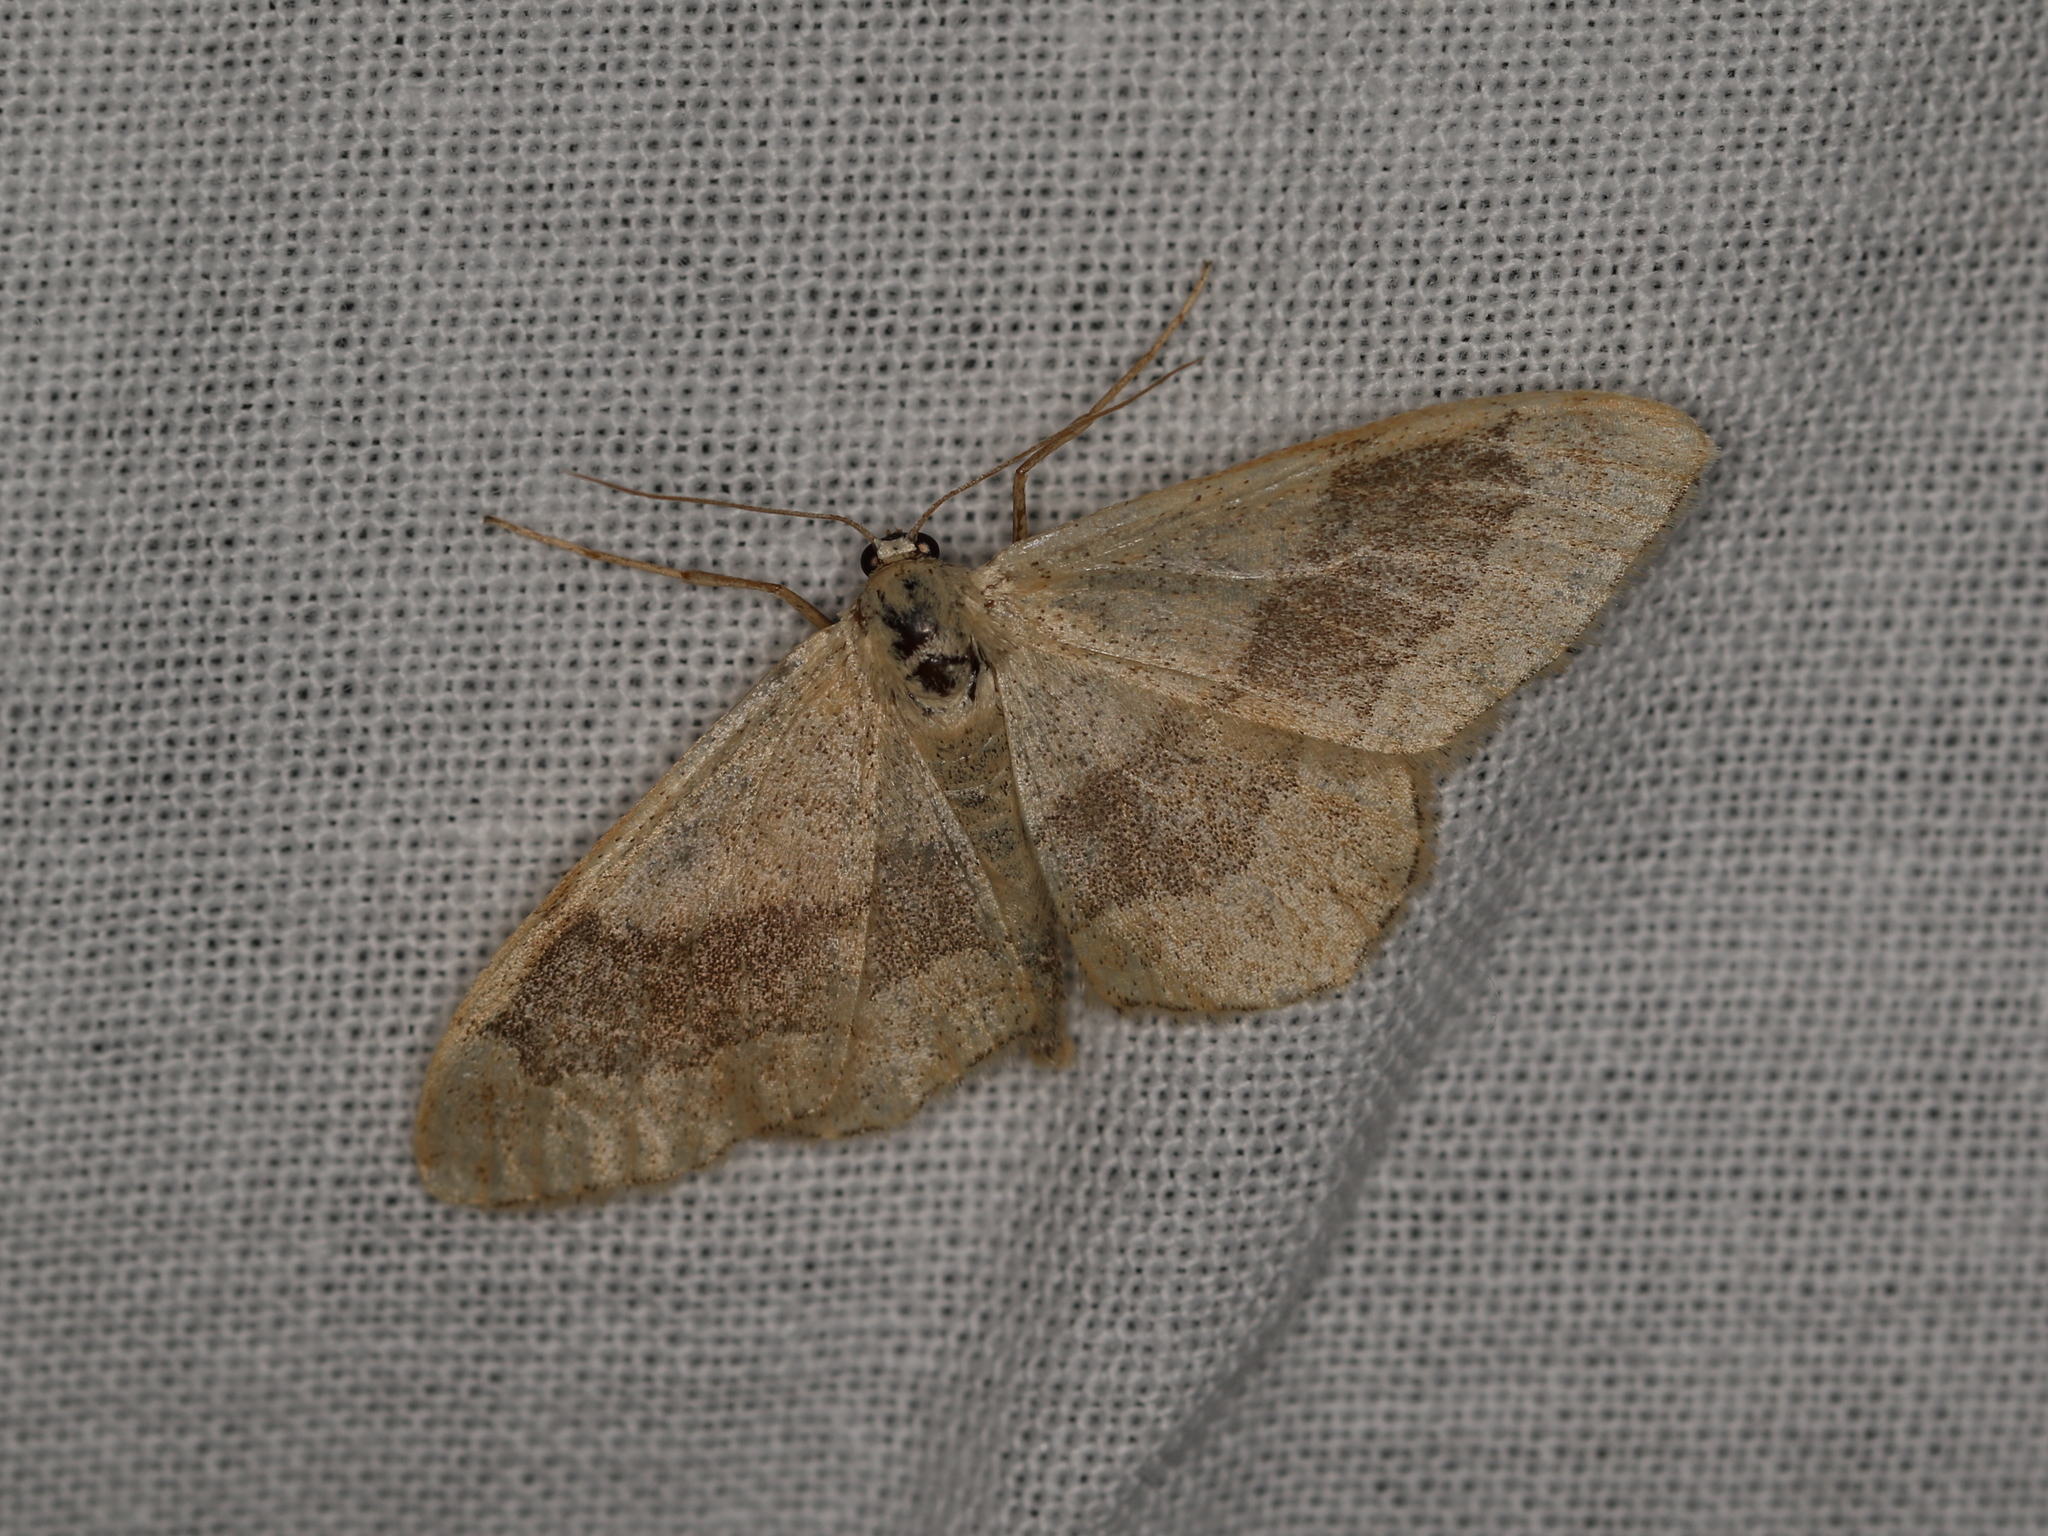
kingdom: Animalia
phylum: Arthropoda
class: Insecta
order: Lepidoptera
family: Geometridae
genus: Idaea
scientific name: Idaea aversata
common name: Riband wave
